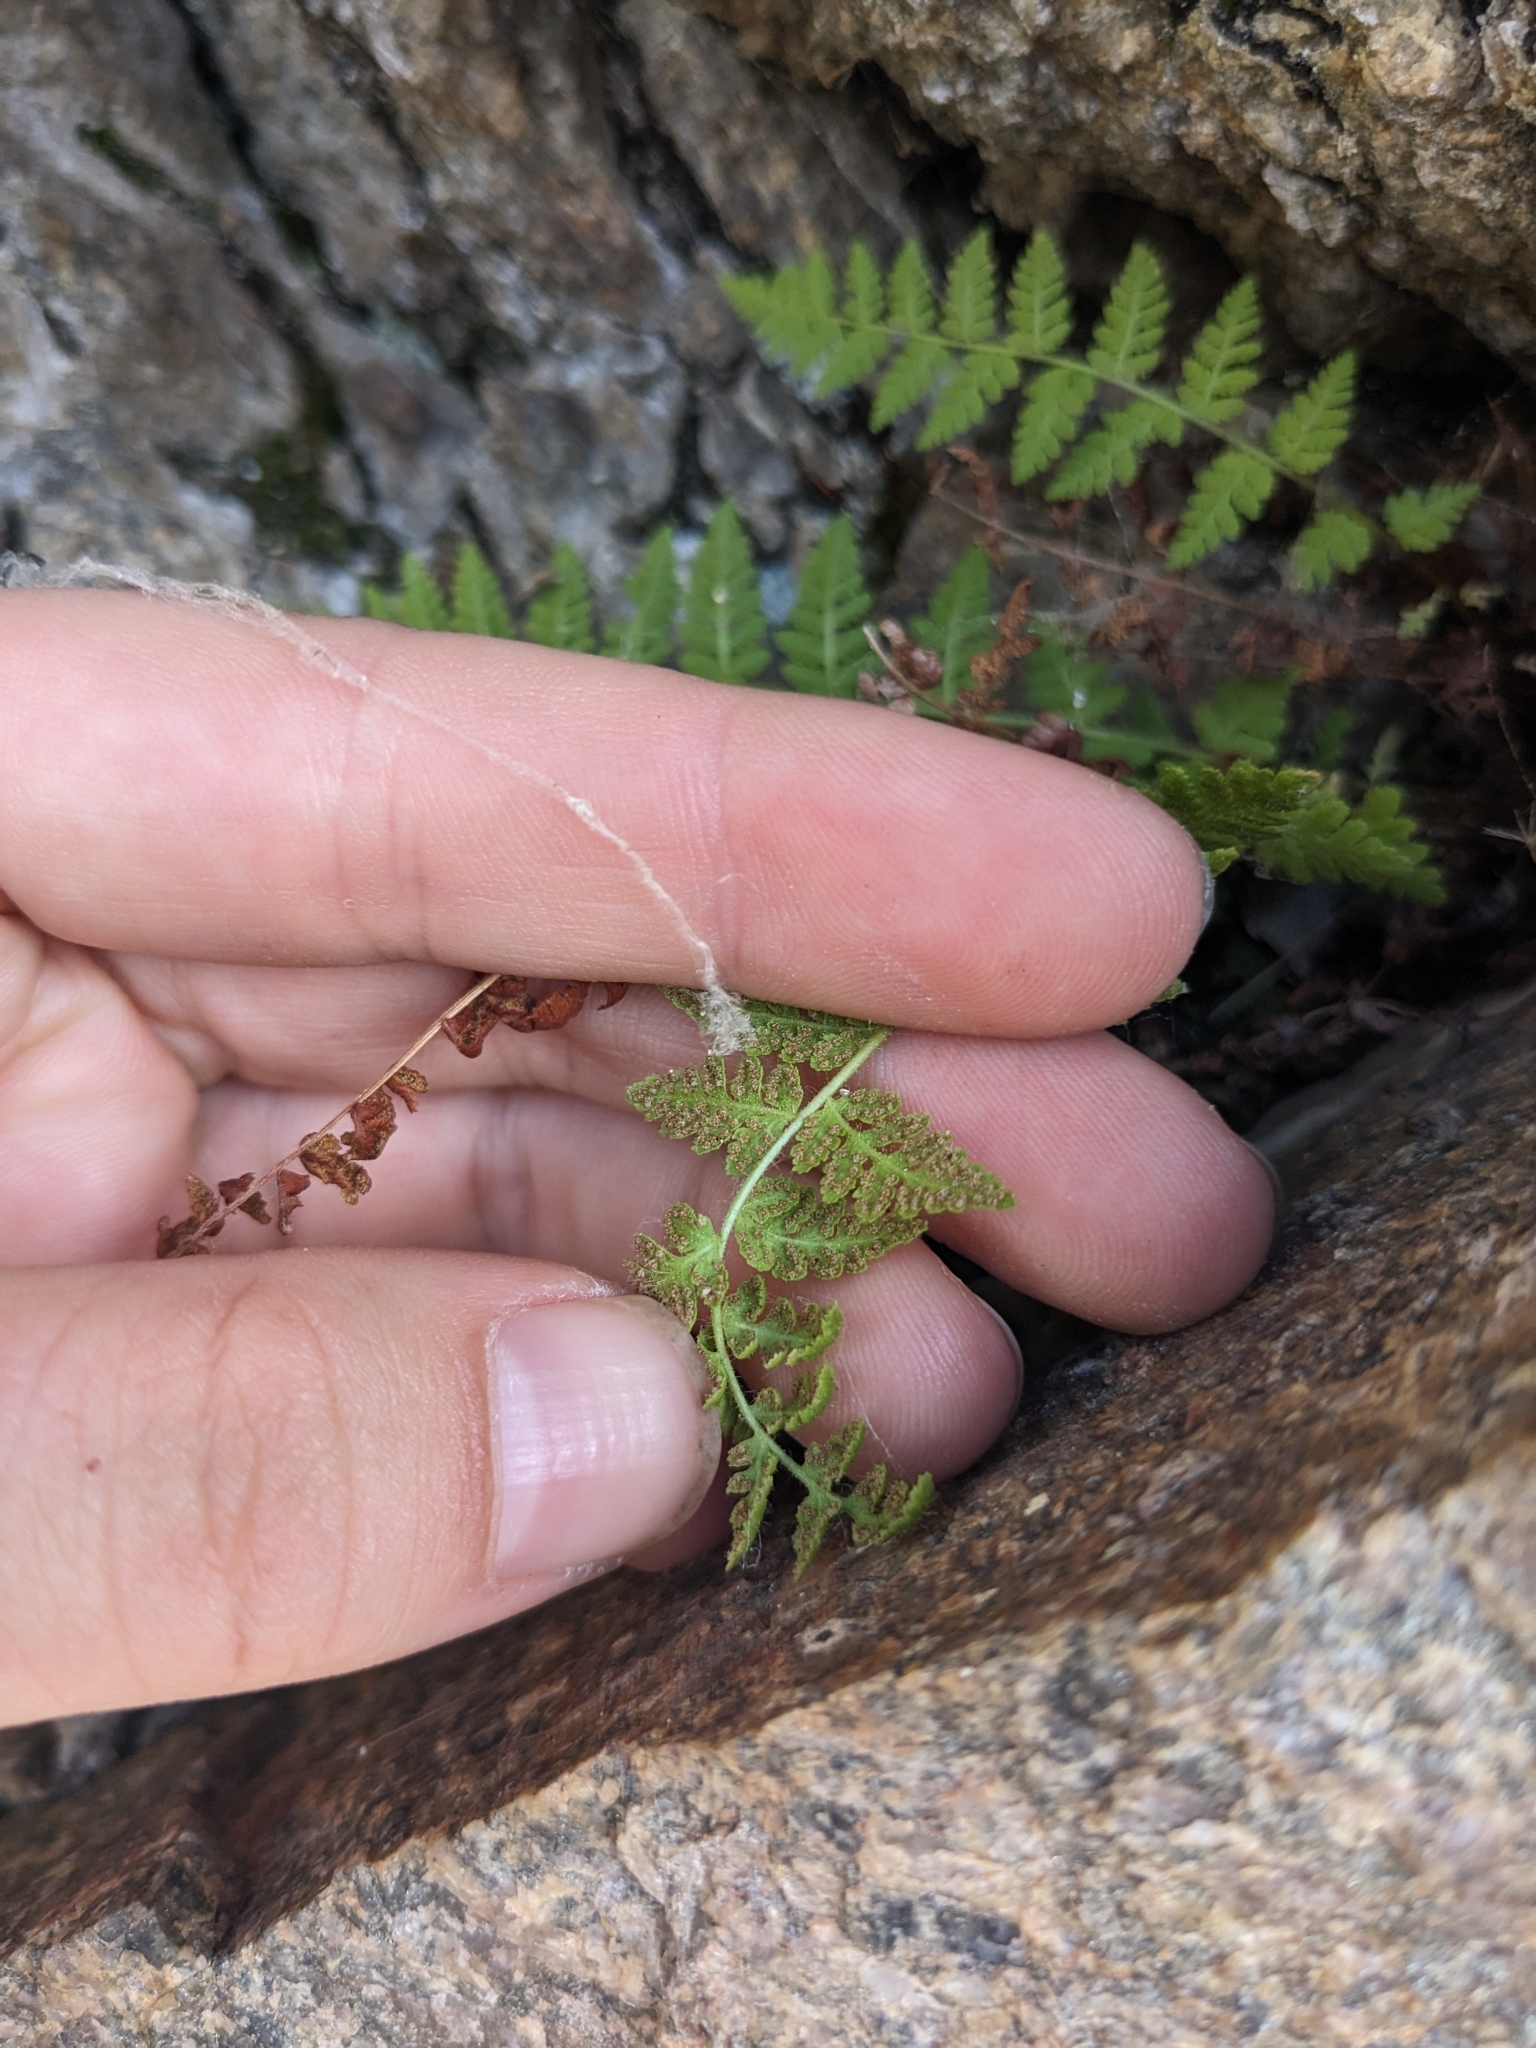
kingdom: Plantae
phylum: Tracheophyta
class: Polypodiopsida
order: Polypodiales
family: Woodsiaceae
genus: Physematium
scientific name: Physematium scopulinum
